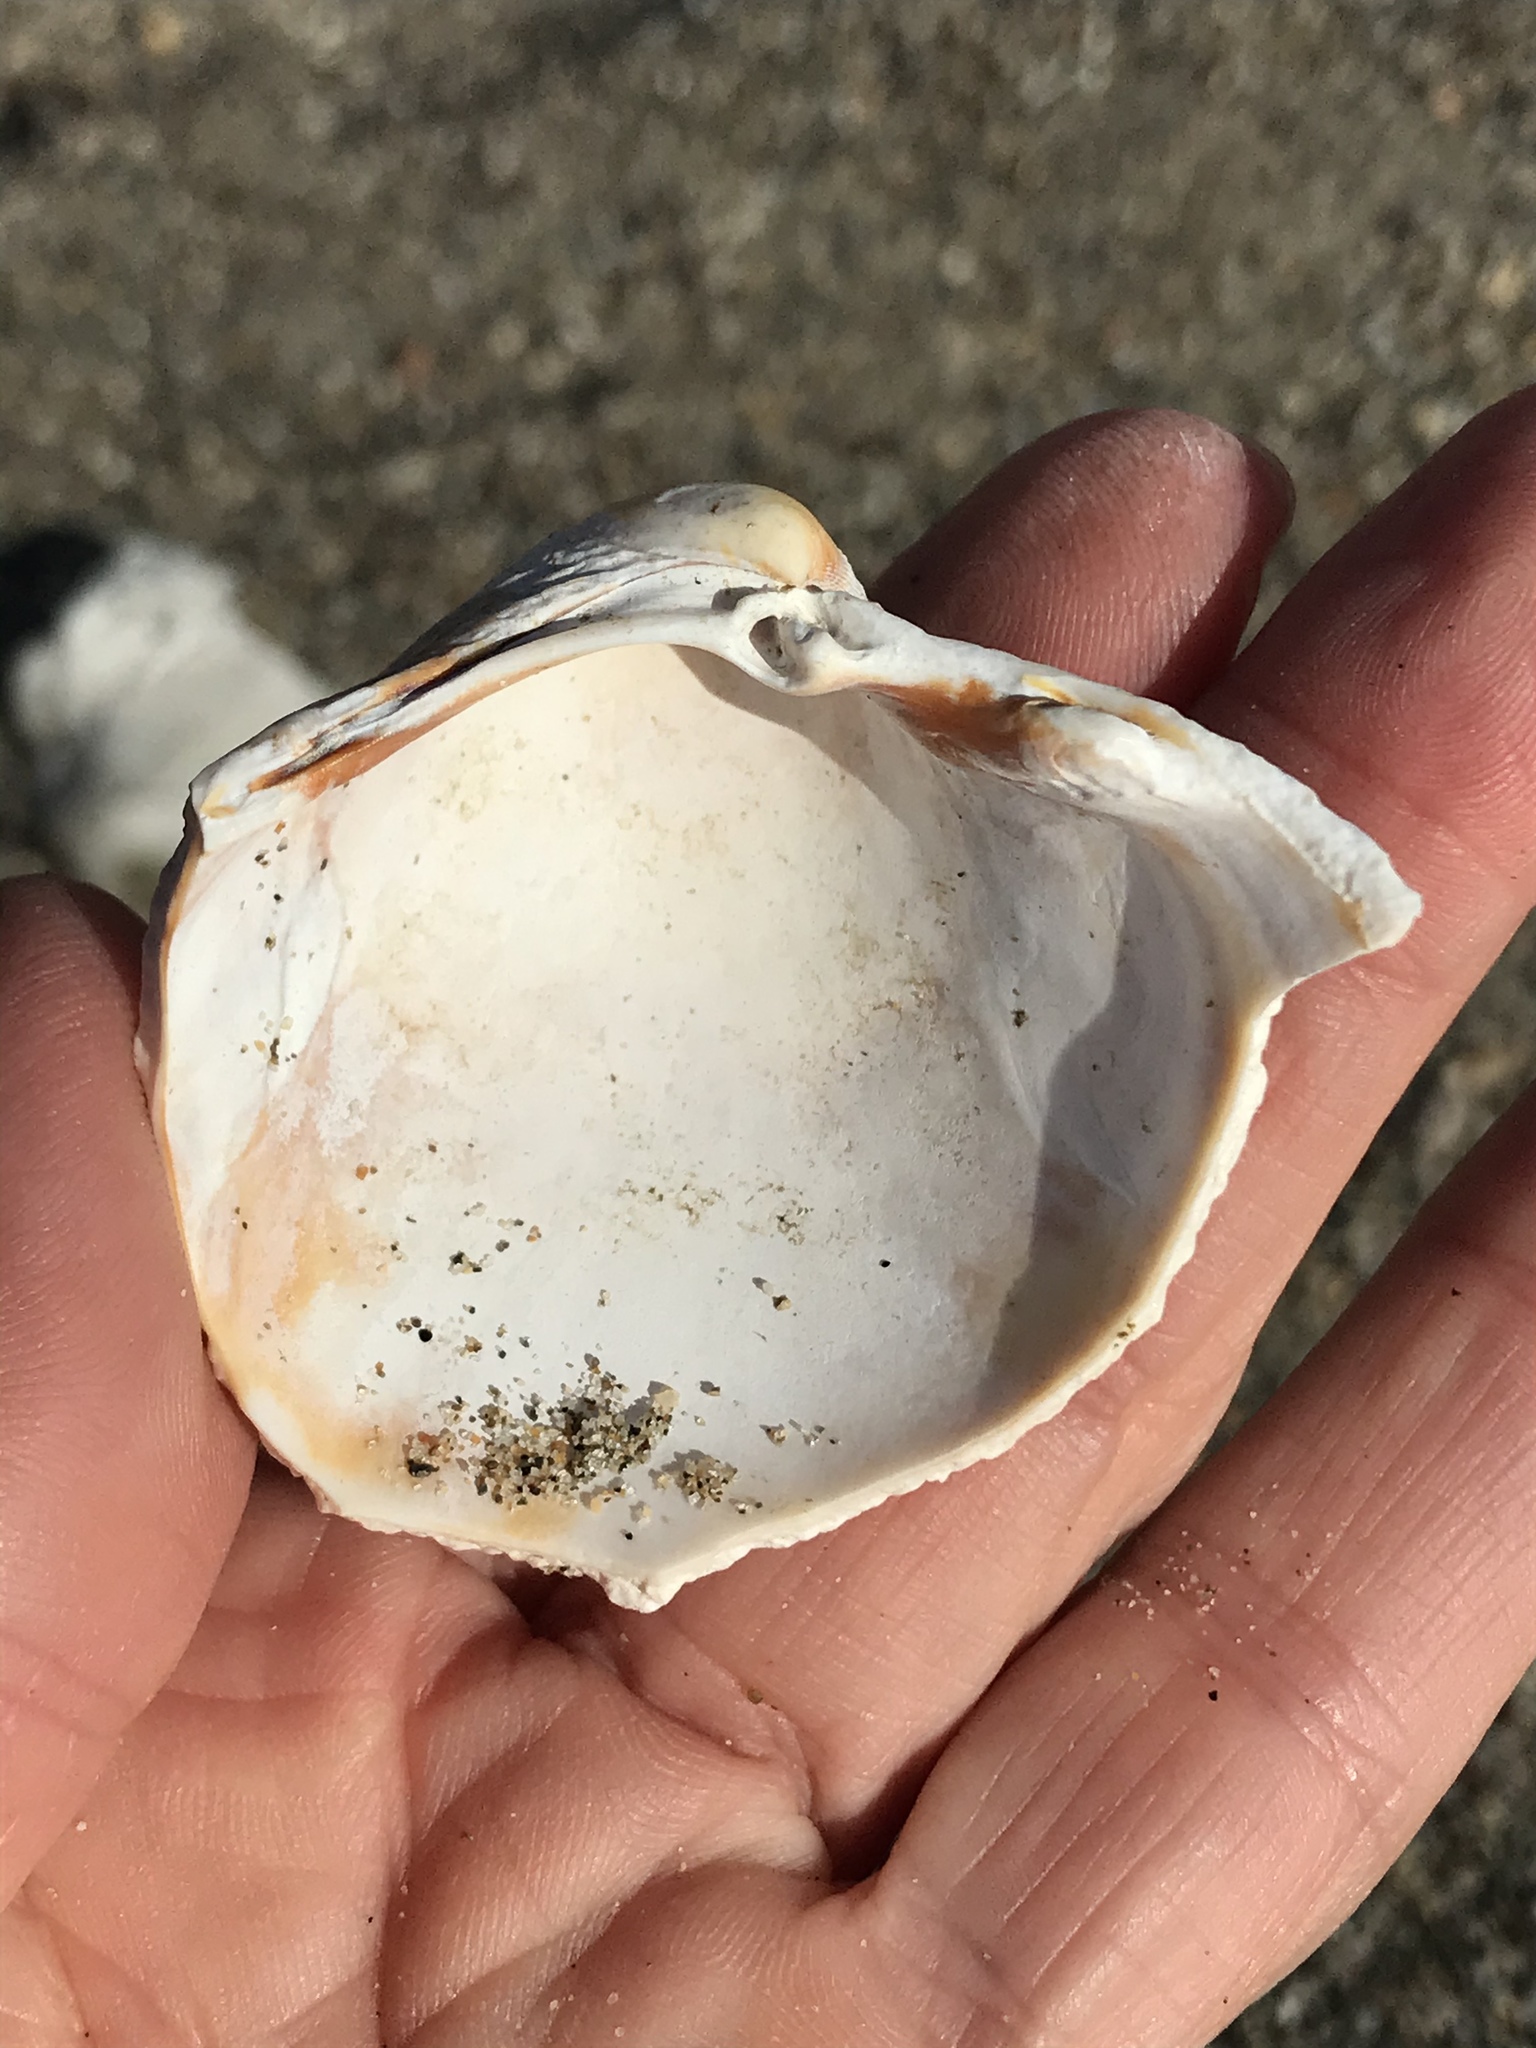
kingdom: Animalia
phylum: Mollusca
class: Bivalvia
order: Cardiida
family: Cardiidae
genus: Clinocardium
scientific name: Clinocardium nuttallii
